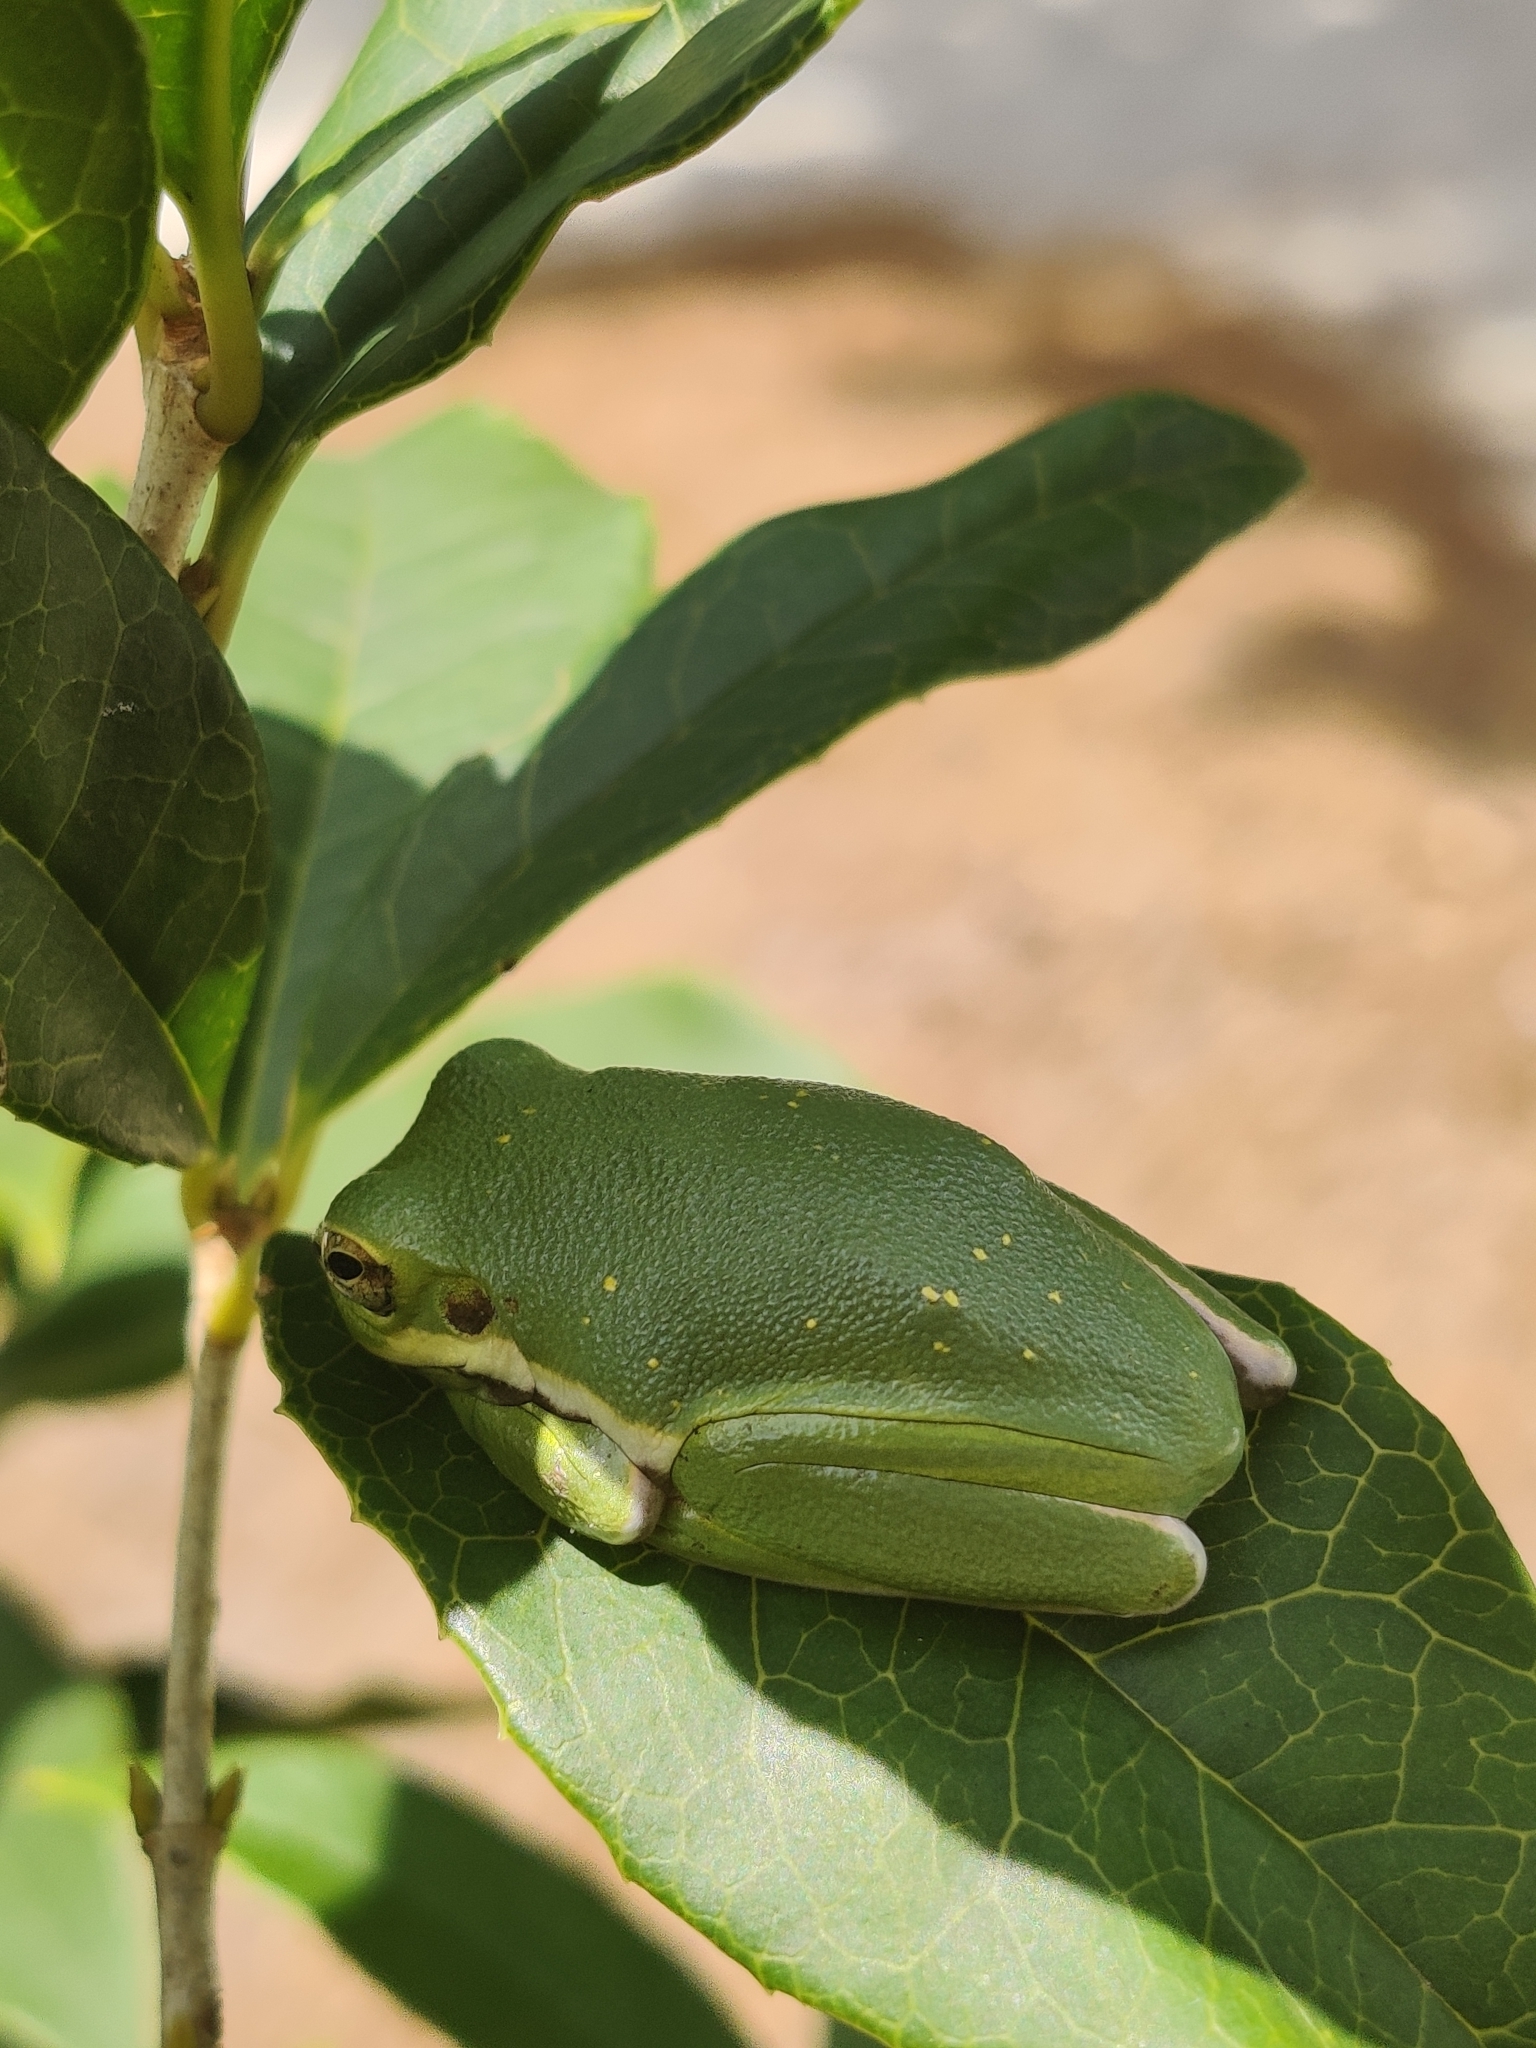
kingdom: Animalia
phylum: Chordata
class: Amphibia
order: Anura
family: Hylidae
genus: Dryophytes
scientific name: Dryophytes cinereus
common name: Green treefrog
